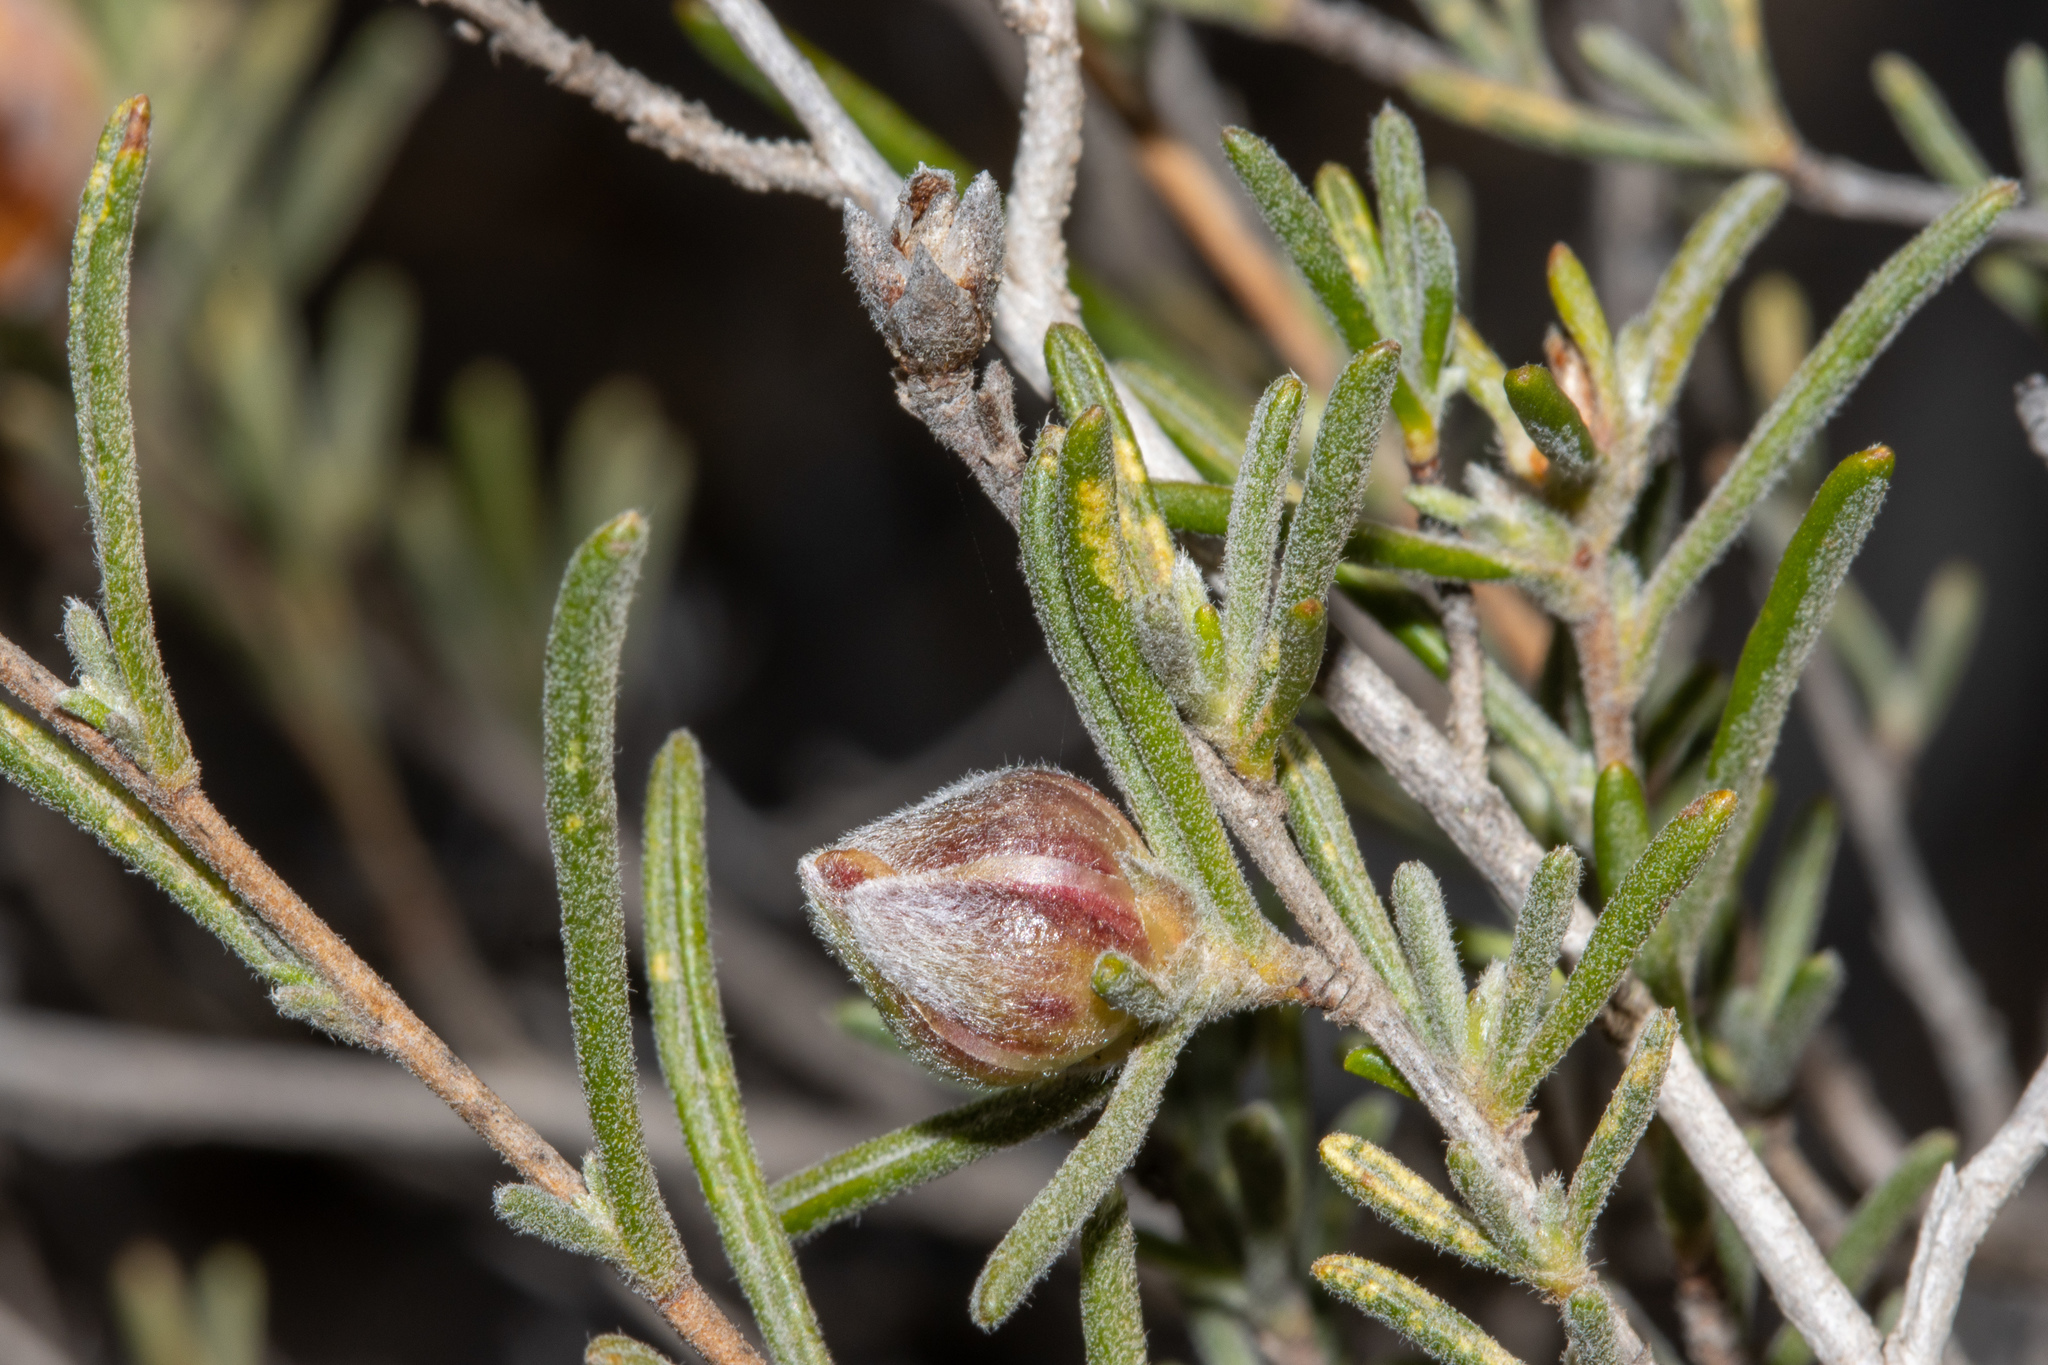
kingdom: Plantae
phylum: Tracheophyta
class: Magnoliopsida
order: Dilleniales
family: Dilleniaceae
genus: Hibbertia
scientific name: Hibbertia virgata
